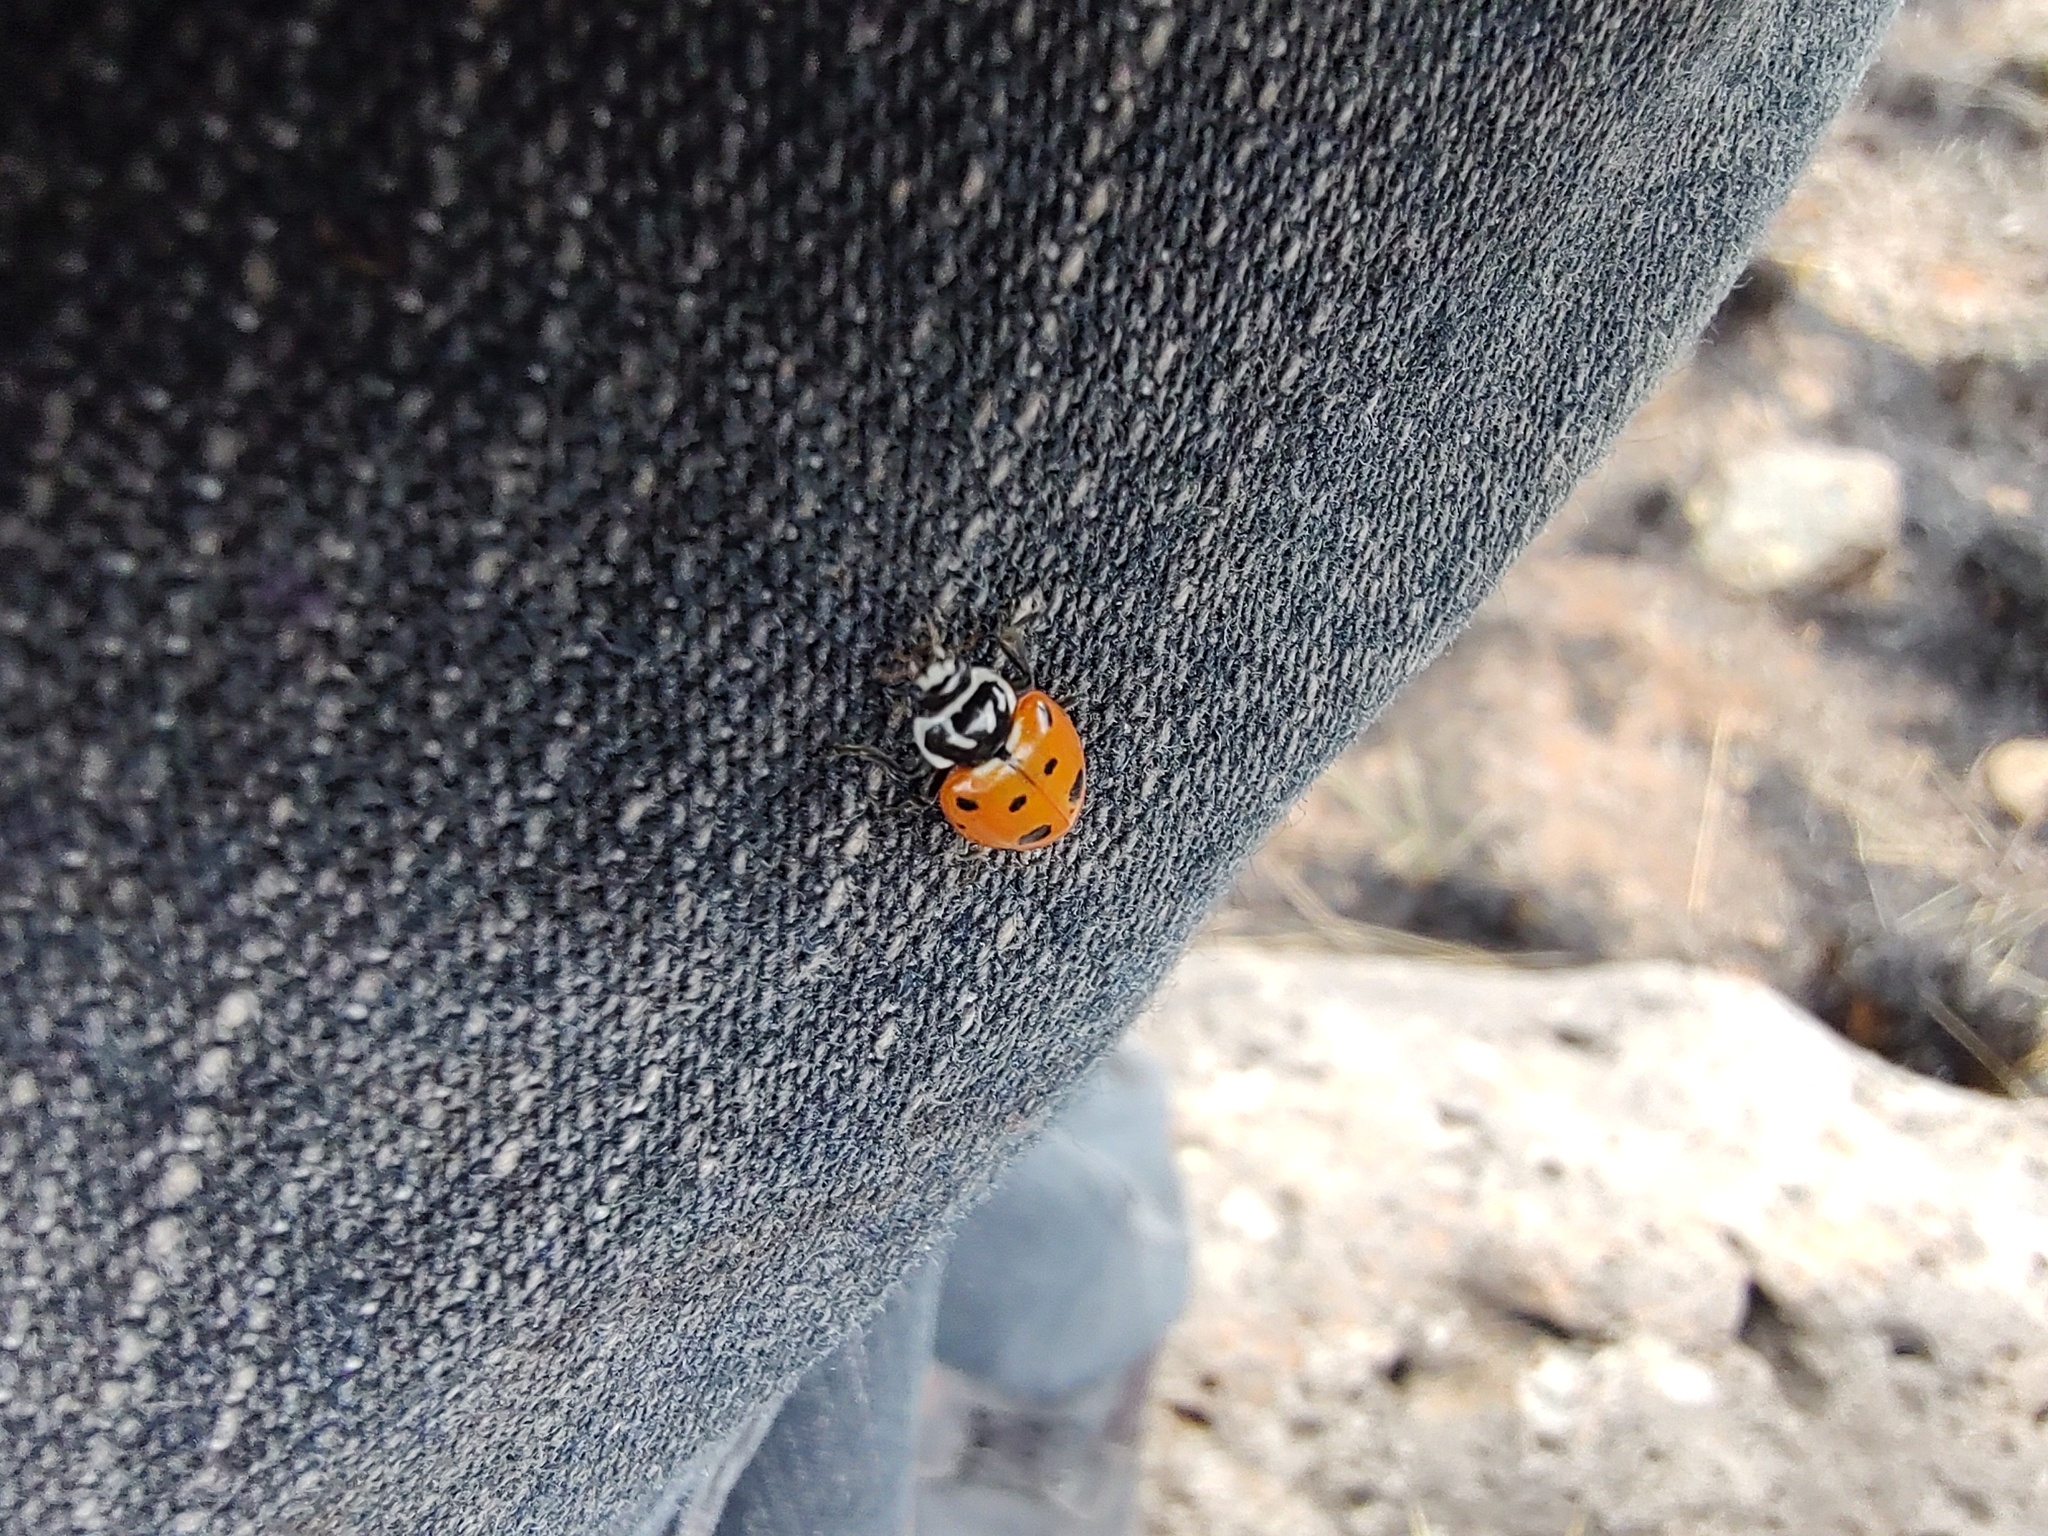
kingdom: Animalia
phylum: Arthropoda
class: Insecta
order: Coleoptera
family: Coccinellidae
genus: Hippodamia
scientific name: Hippodamia convergens
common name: Convergent lady beetle
